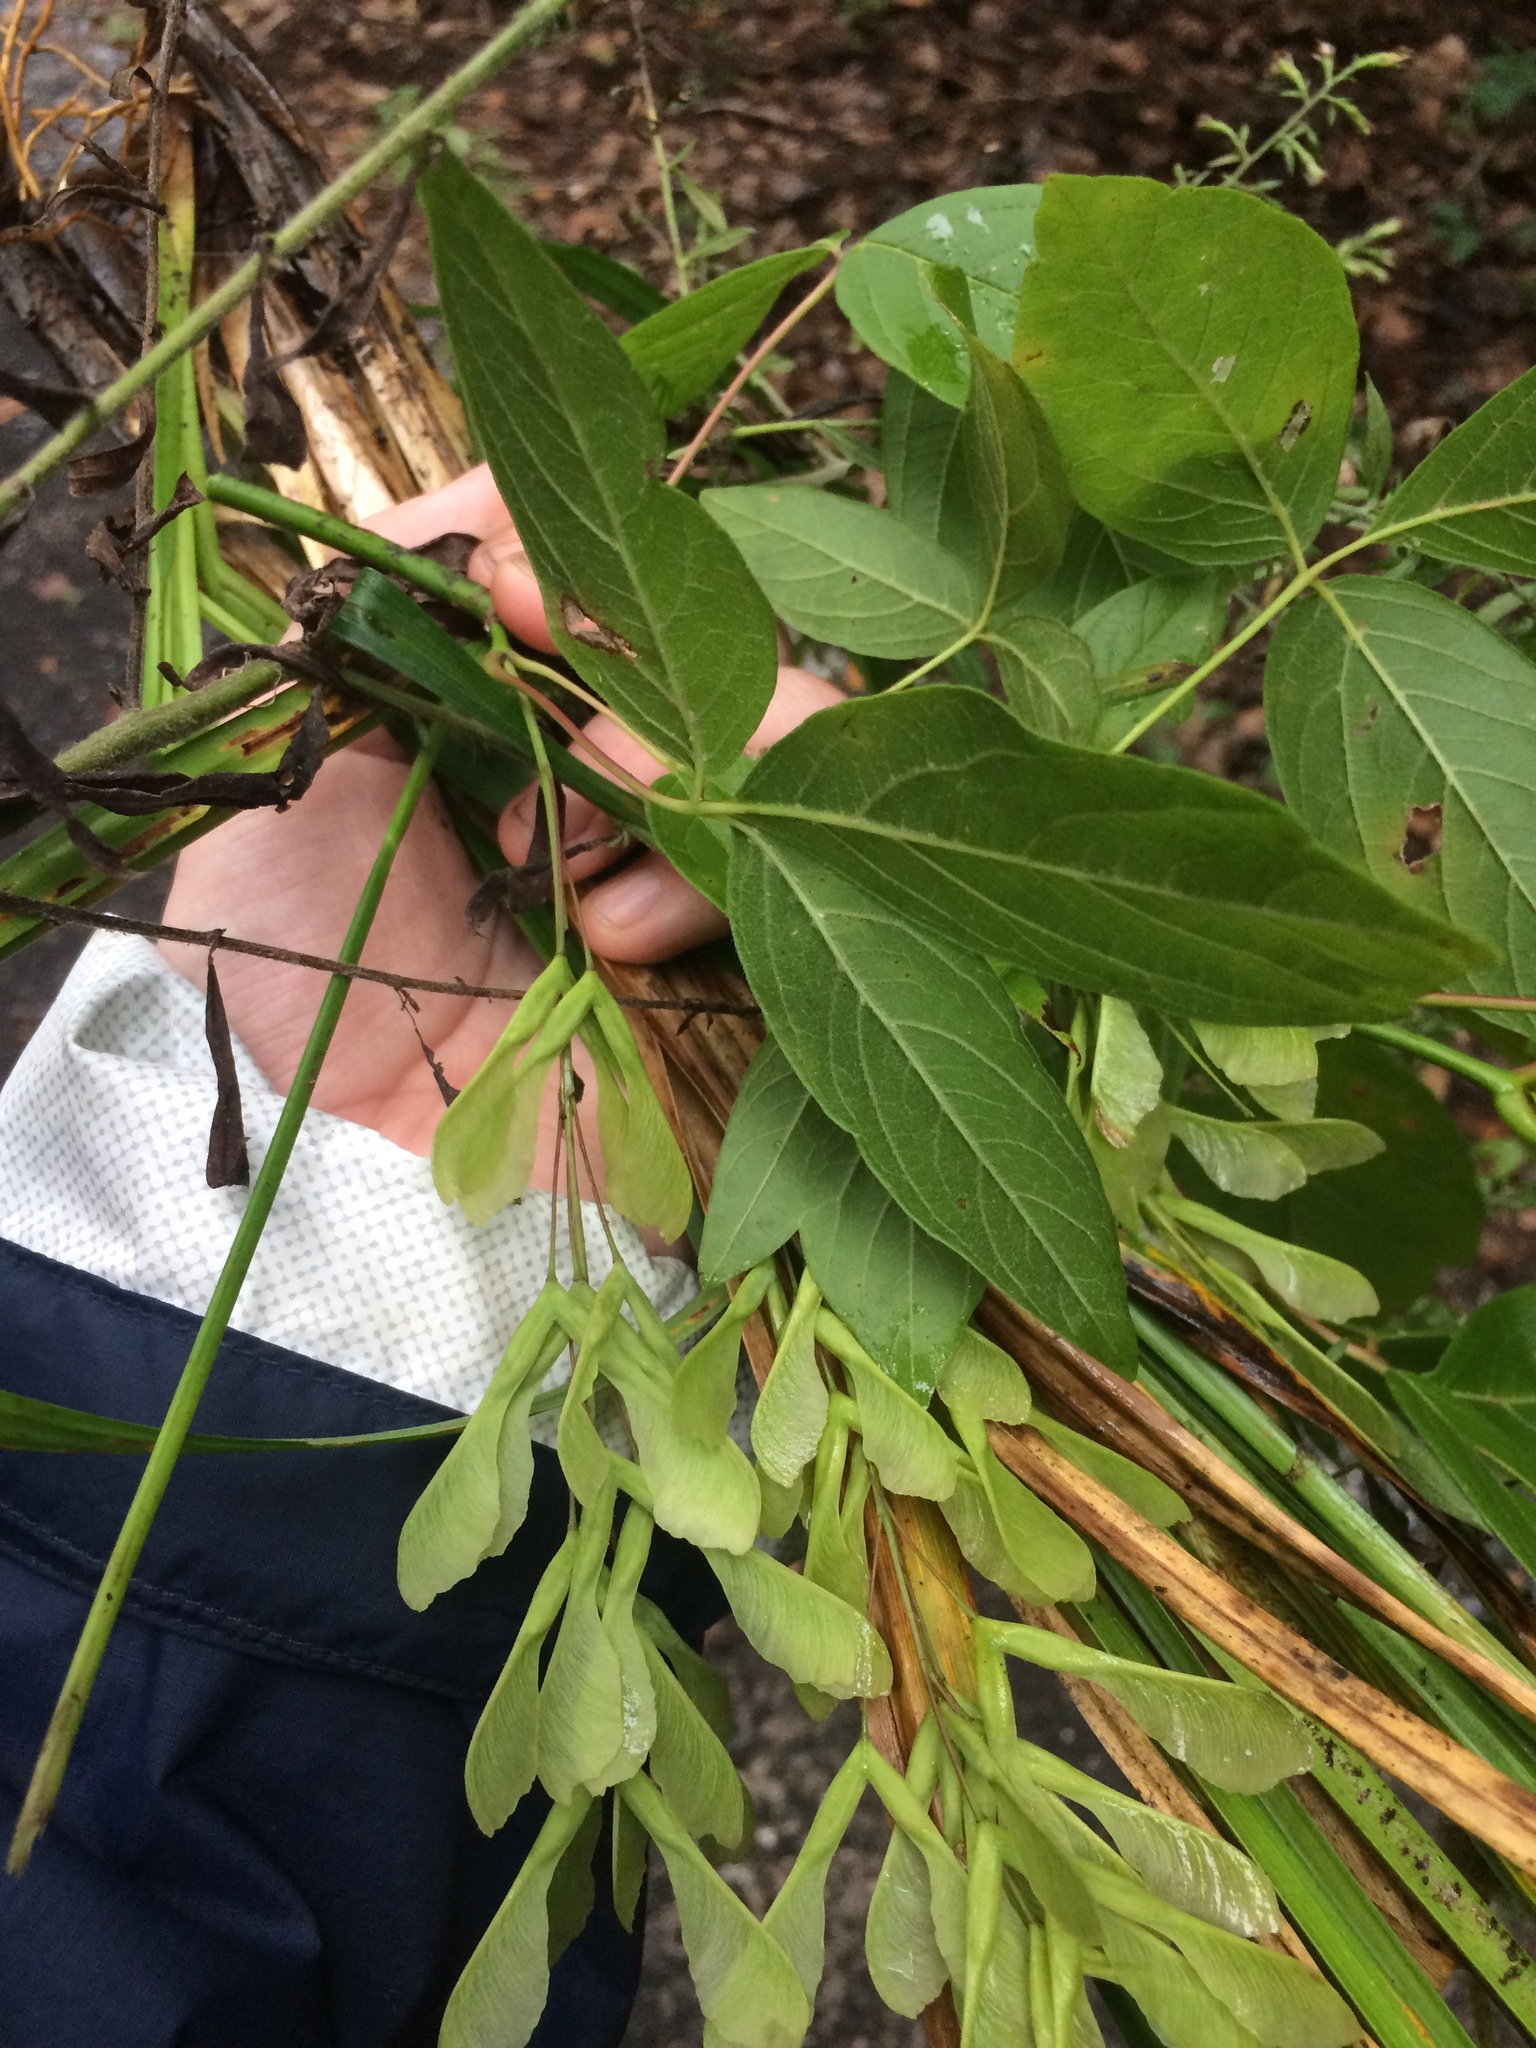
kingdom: Plantae
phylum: Tracheophyta
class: Magnoliopsida
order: Sapindales
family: Sapindaceae
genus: Acer
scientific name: Acer negundo
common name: Ashleaf maple
